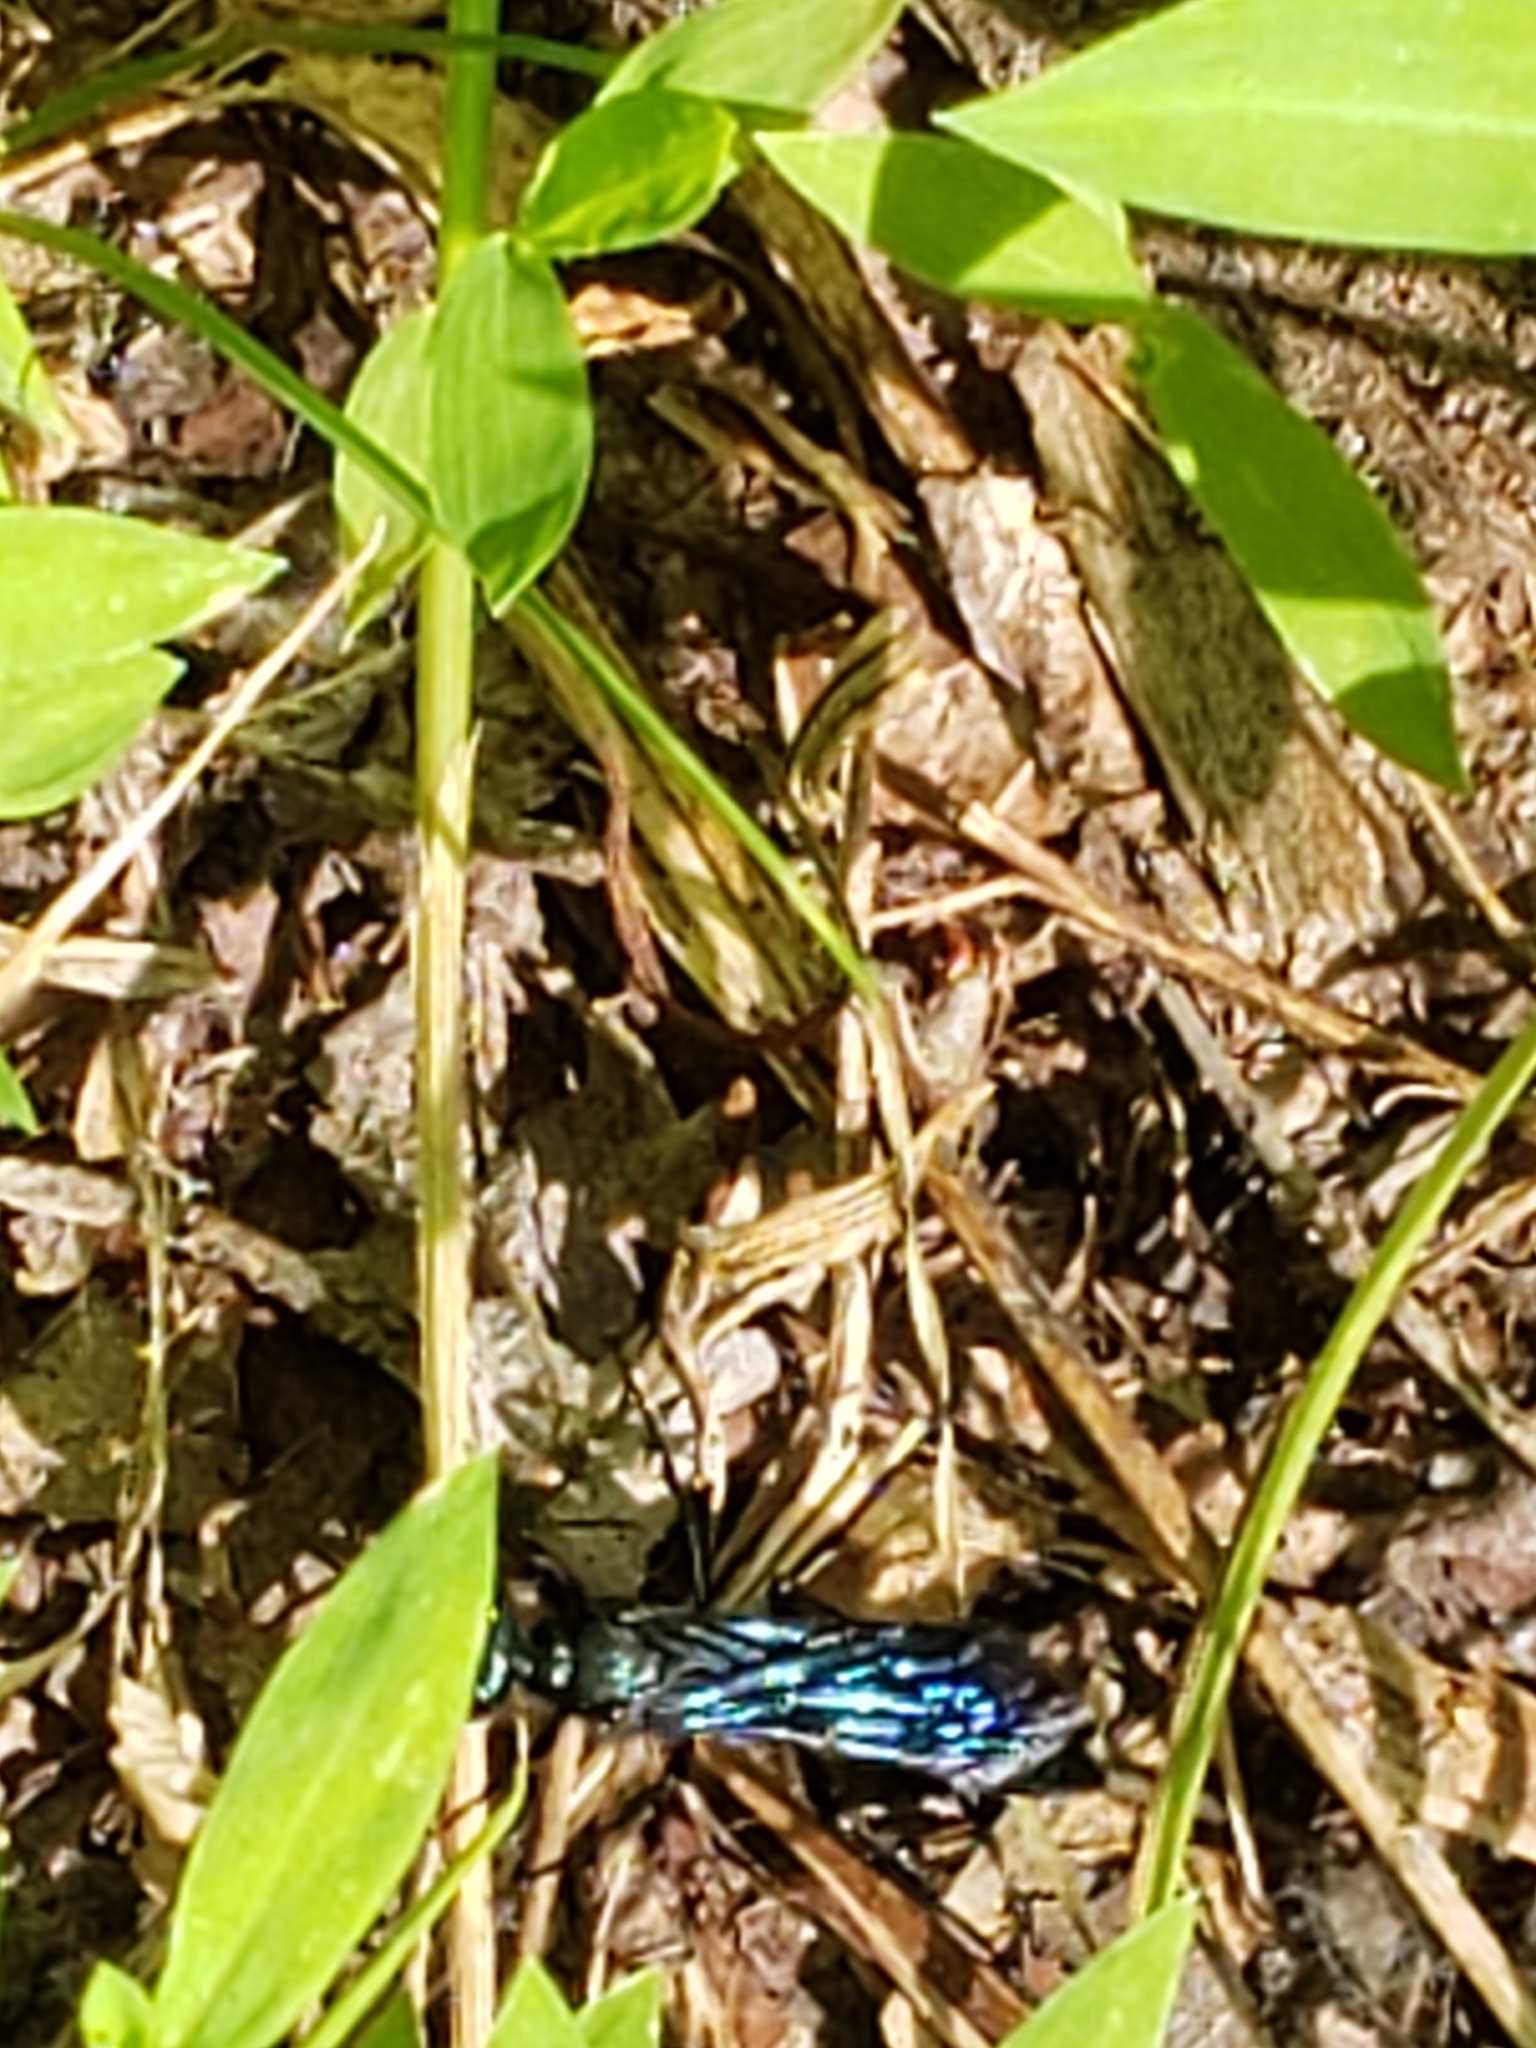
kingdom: Animalia
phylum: Arthropoda
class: Insecta
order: Hymenoptera
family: Sphecidae
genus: Chalybion
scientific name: Chalybion californicum
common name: Mud dauber
